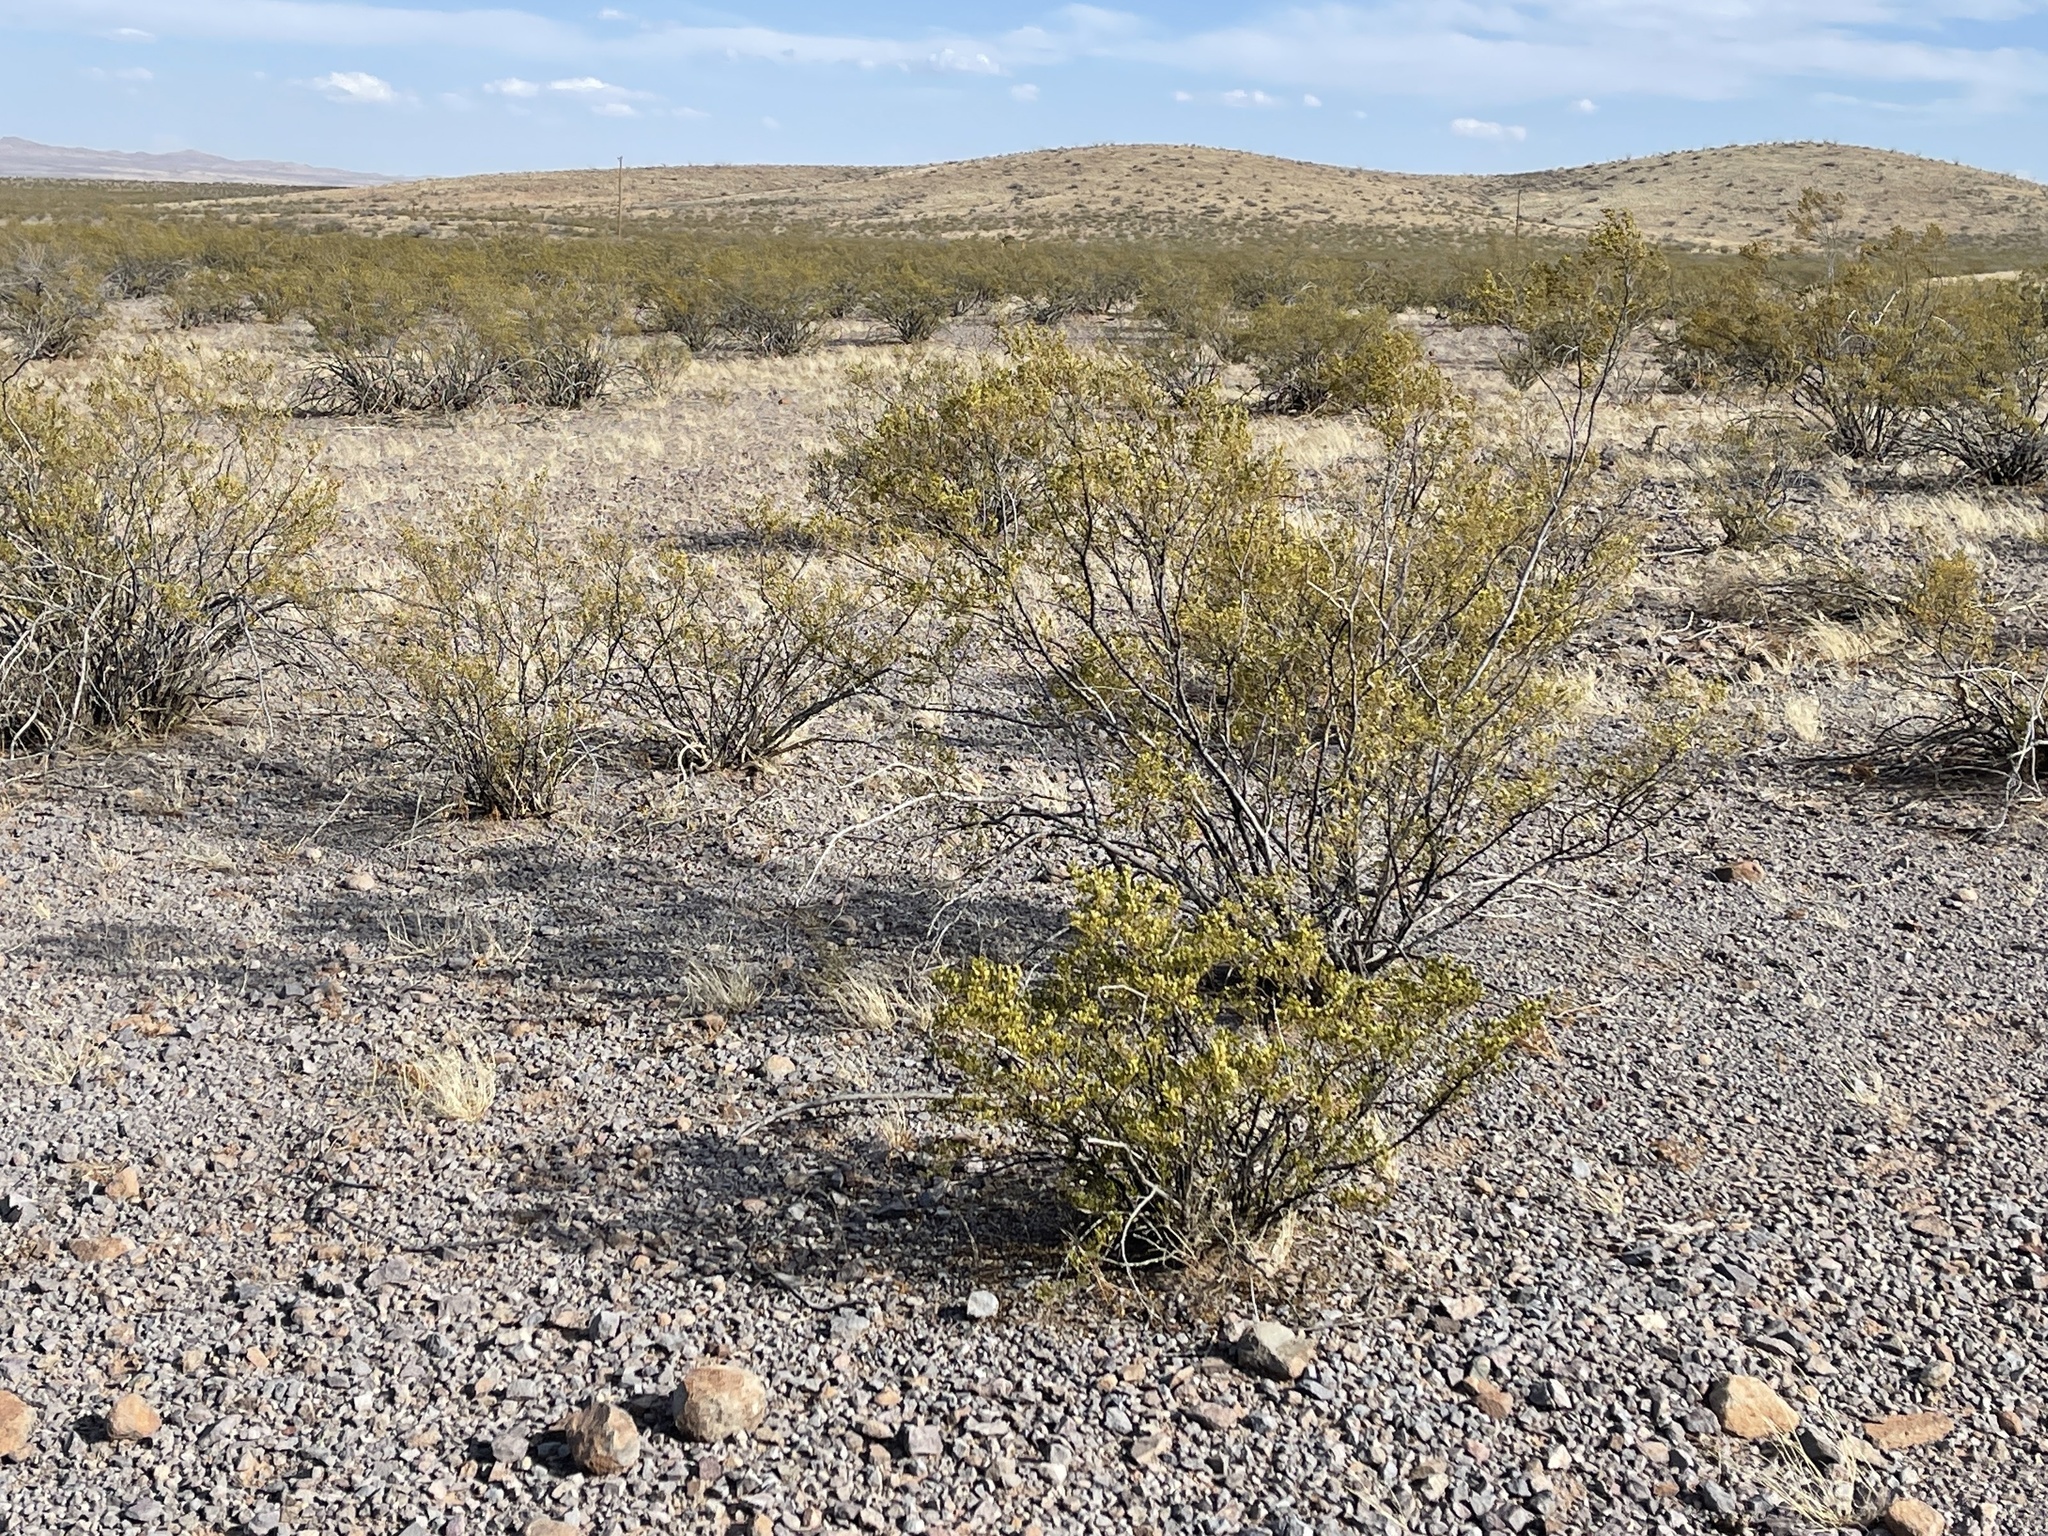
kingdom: Plantae
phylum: Tracheophyta
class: Magnoliopsida
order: Zygophyllales
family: Zygophyllaceae
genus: Larrea
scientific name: Larrea tridentata
